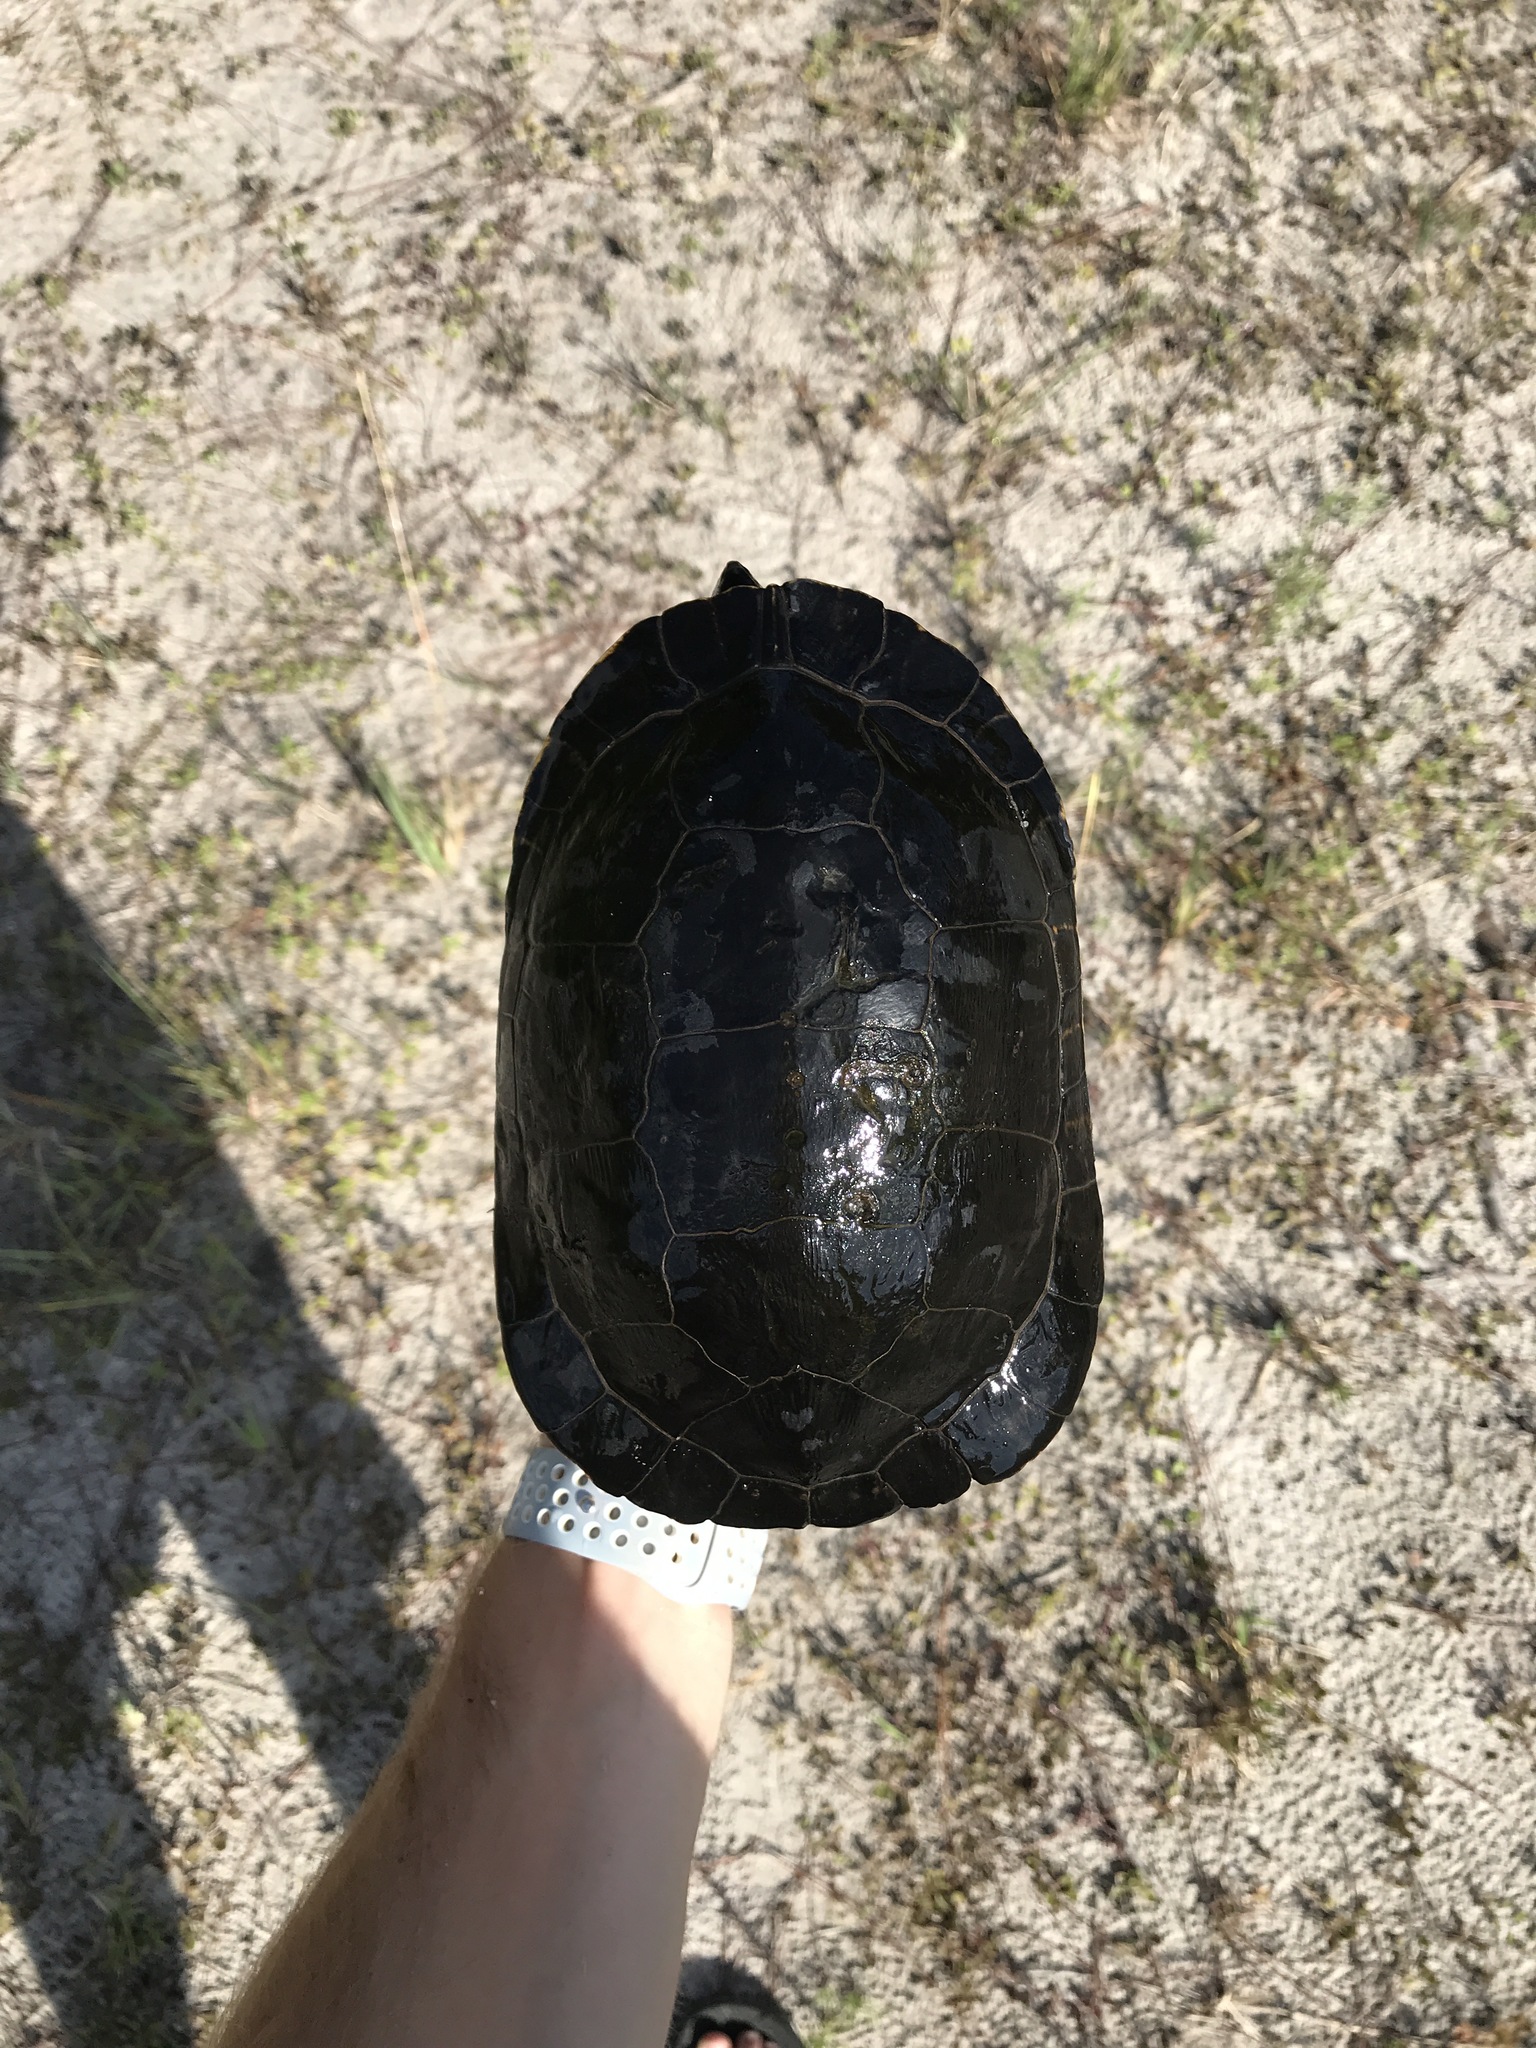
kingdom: Animalia
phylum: Chordata
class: Testudines
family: Emydidae
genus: Deirochelys
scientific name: Deirochelys reticularia
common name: Chicken turtle
